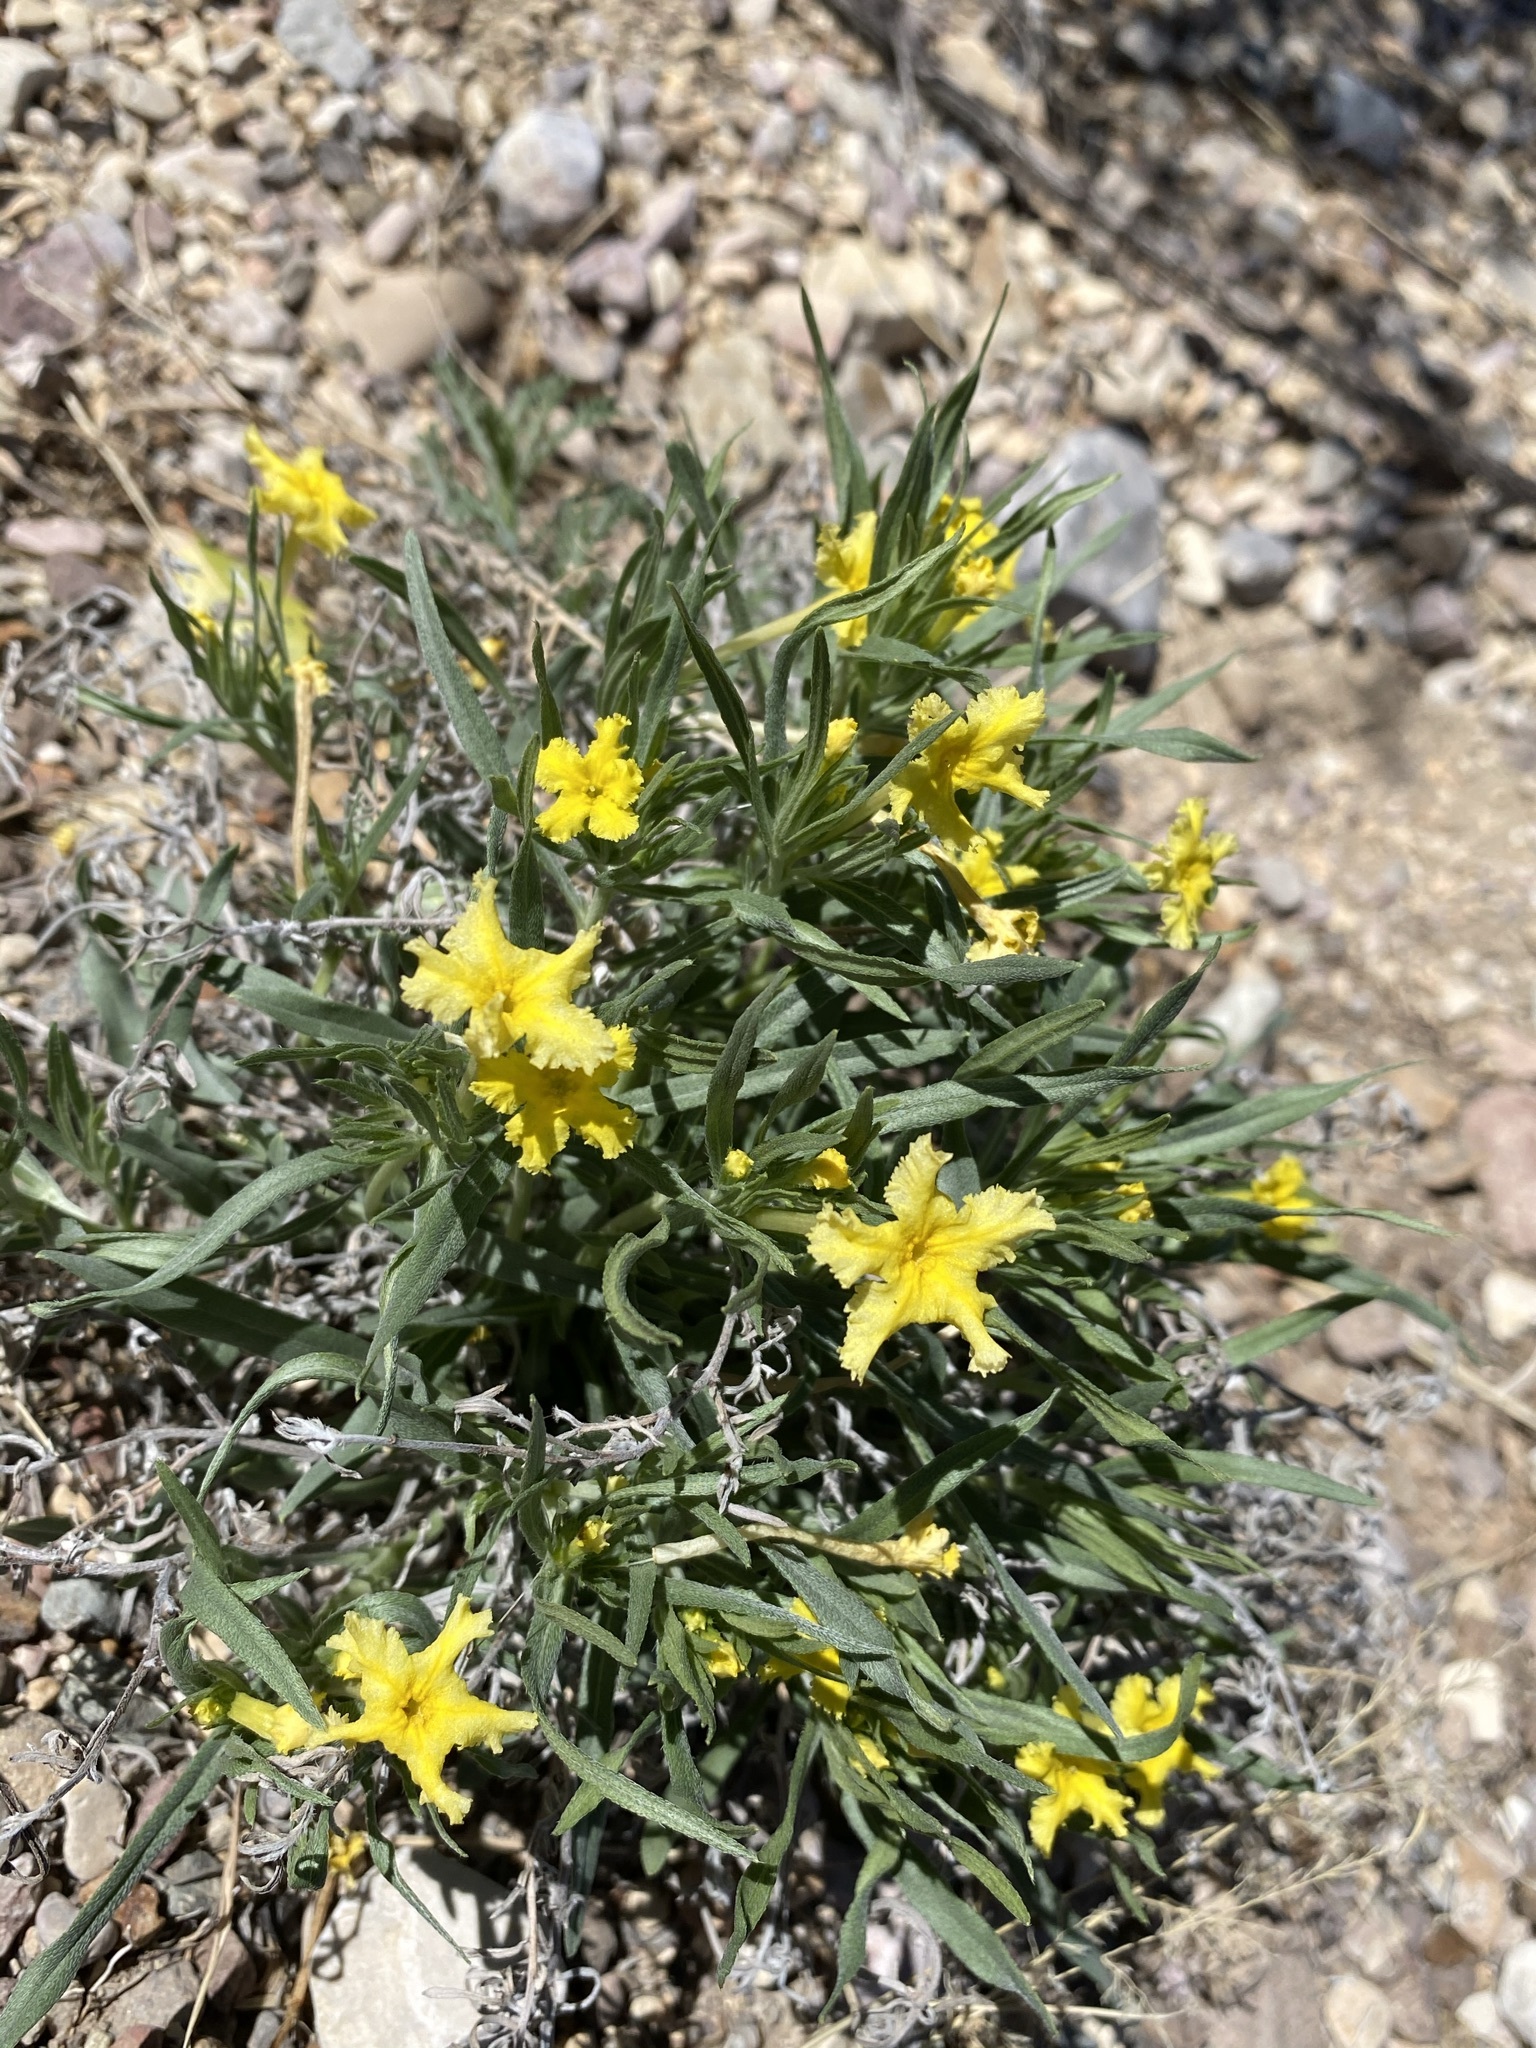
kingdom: Plantae
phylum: Tracheophyta
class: Magnoliopsida
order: Boraginales
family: Boraginaceae
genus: Lithospermum
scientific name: Lithospermum incisum
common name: Fringed gromwell
